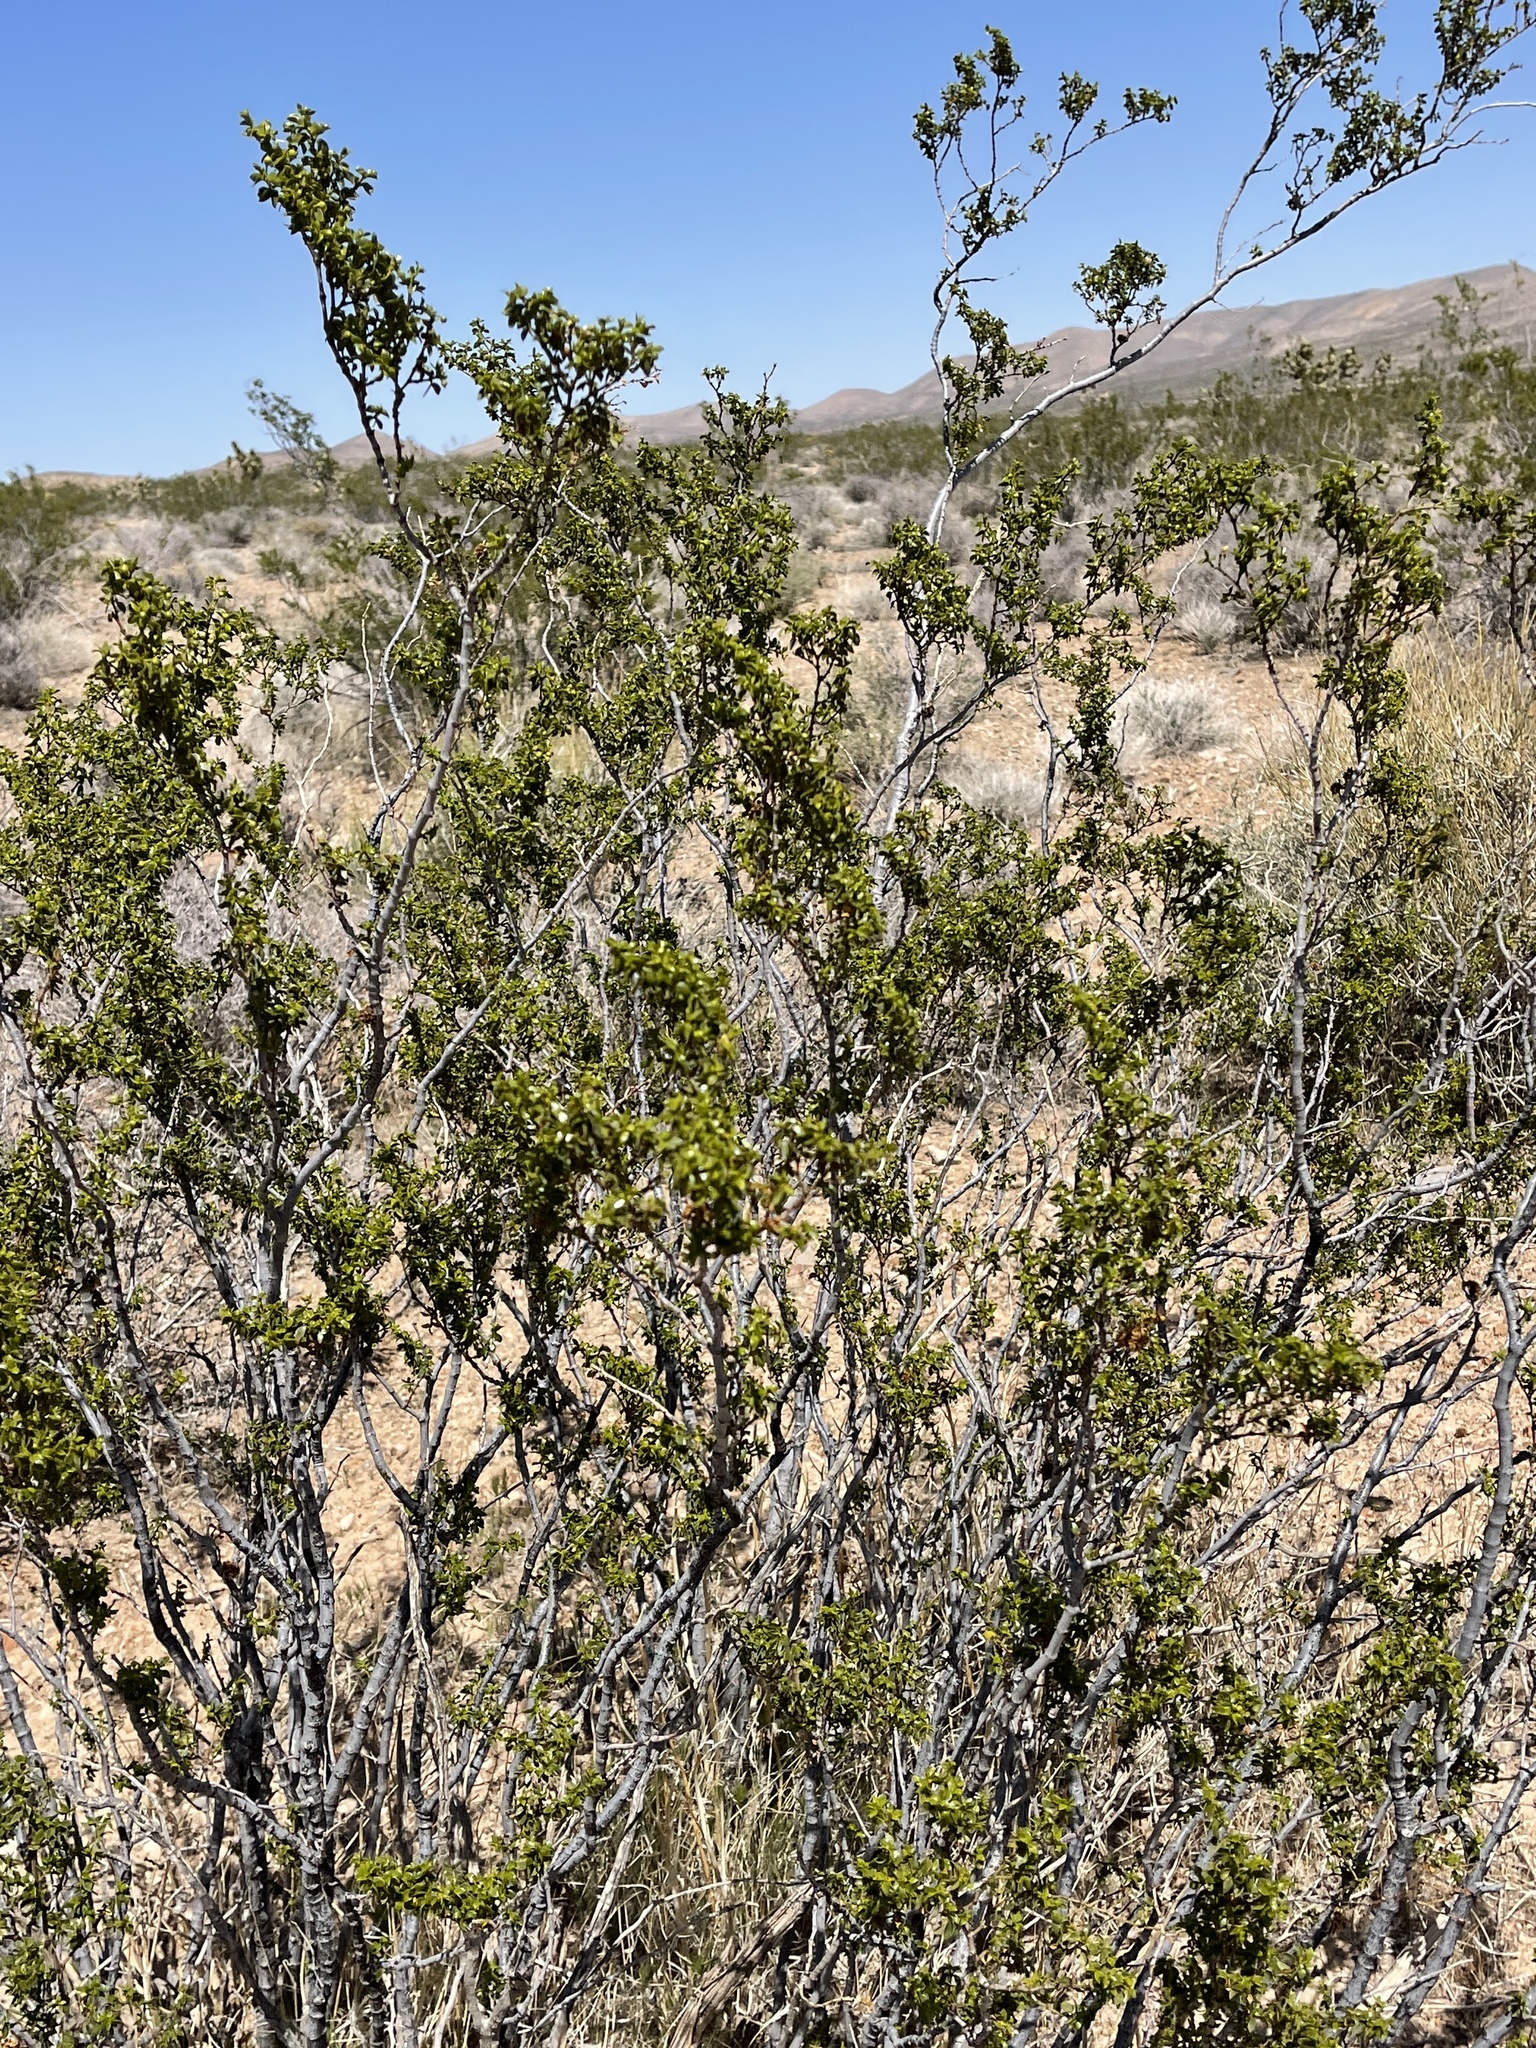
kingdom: Plantae
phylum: Tracheophyta
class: Magnoliopsida
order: Zygophyllales
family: Zygophyllaceae
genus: Larrea
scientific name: Larrea tridentata
